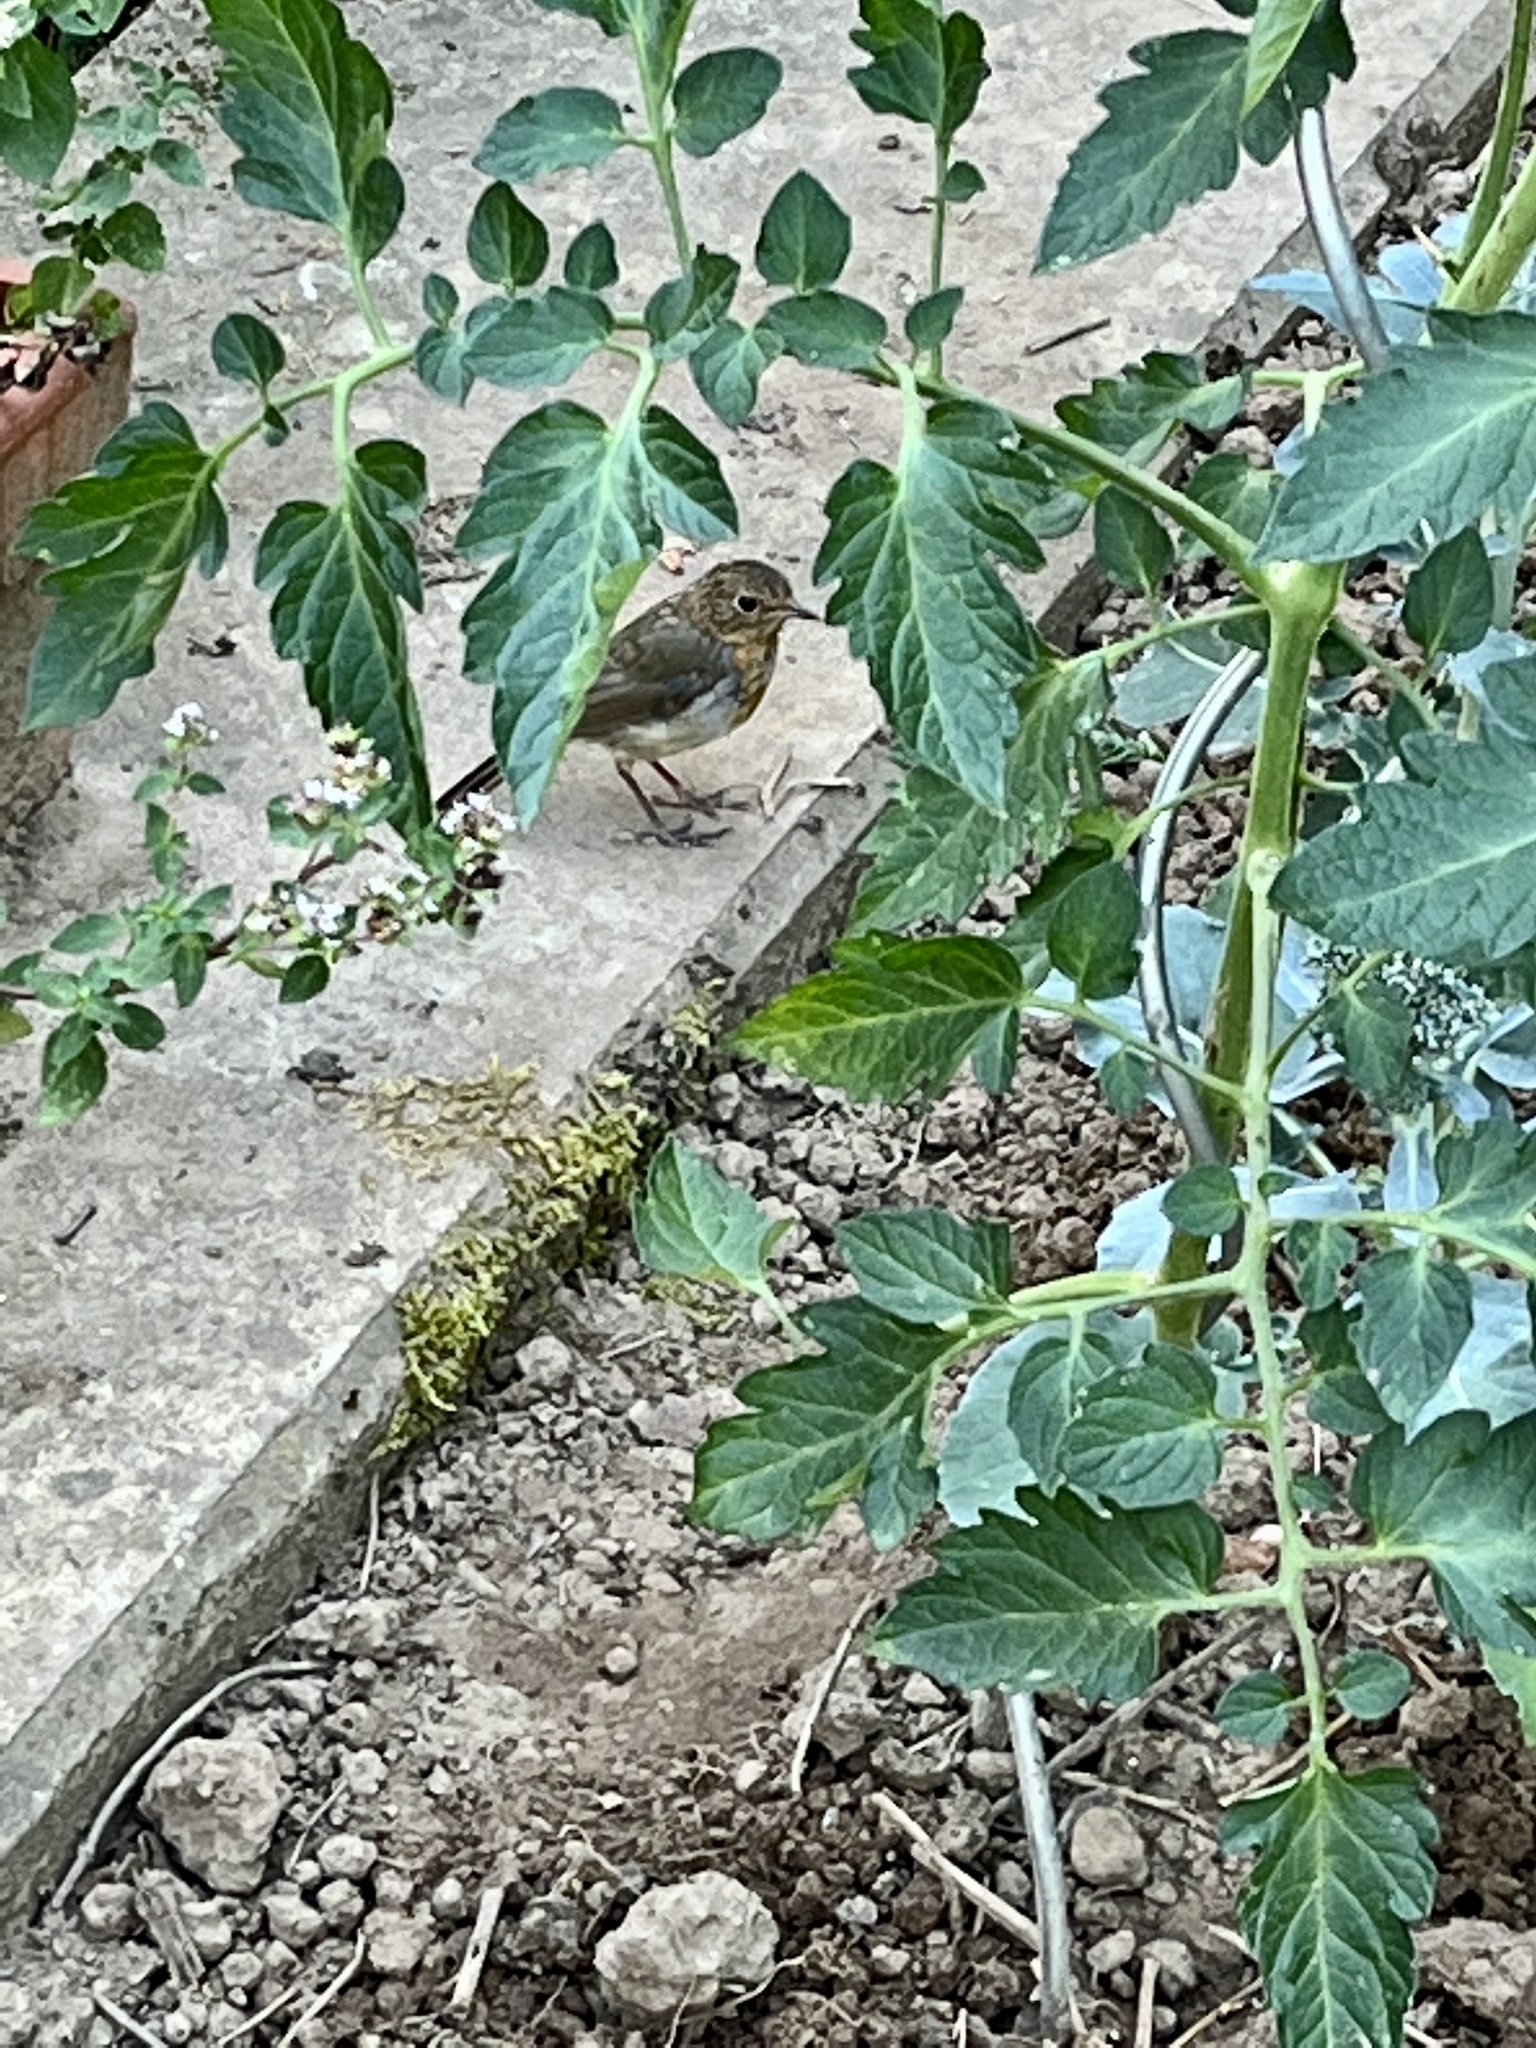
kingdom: Animalia
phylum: Chordata
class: Aves
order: Passeriformes
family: Muscicapidae
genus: Erithacus
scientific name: Erithacus rubecula
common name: European robin
